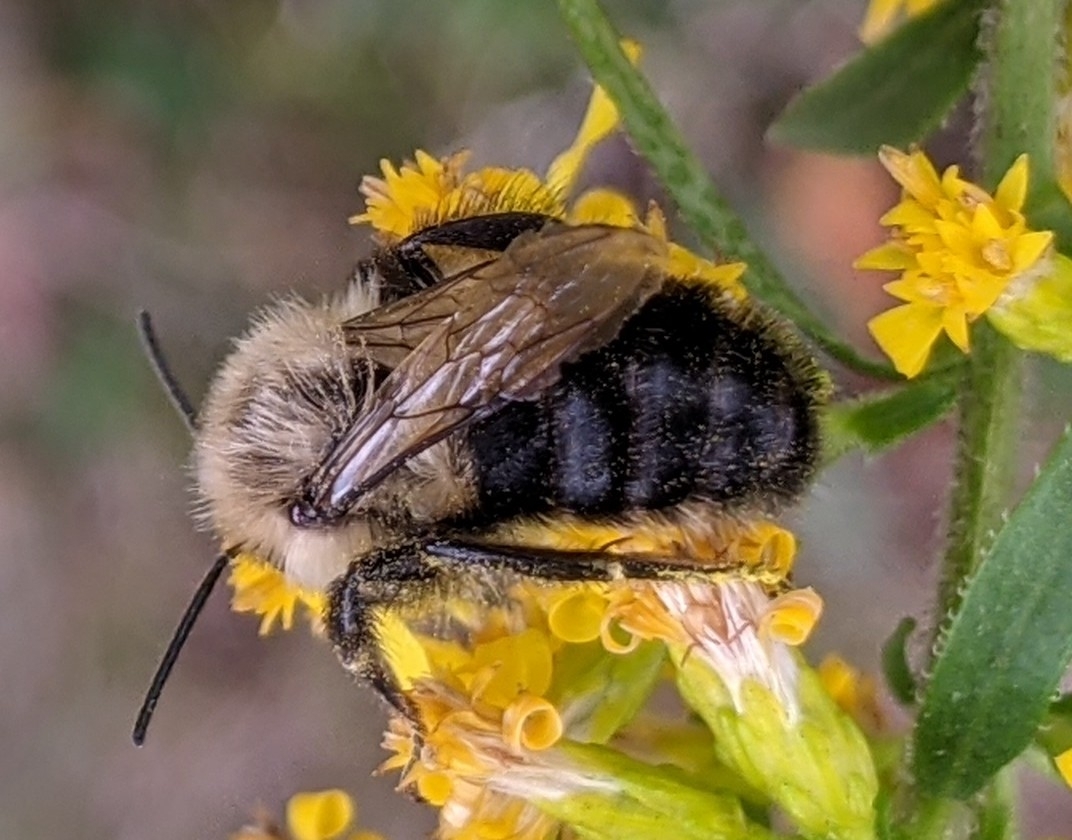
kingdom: Animalia
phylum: Arthropoda
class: Insecta
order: Hymenoptera
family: Apidae
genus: Bombus
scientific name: Bombus impatiens
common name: Common eastern bumble bee
